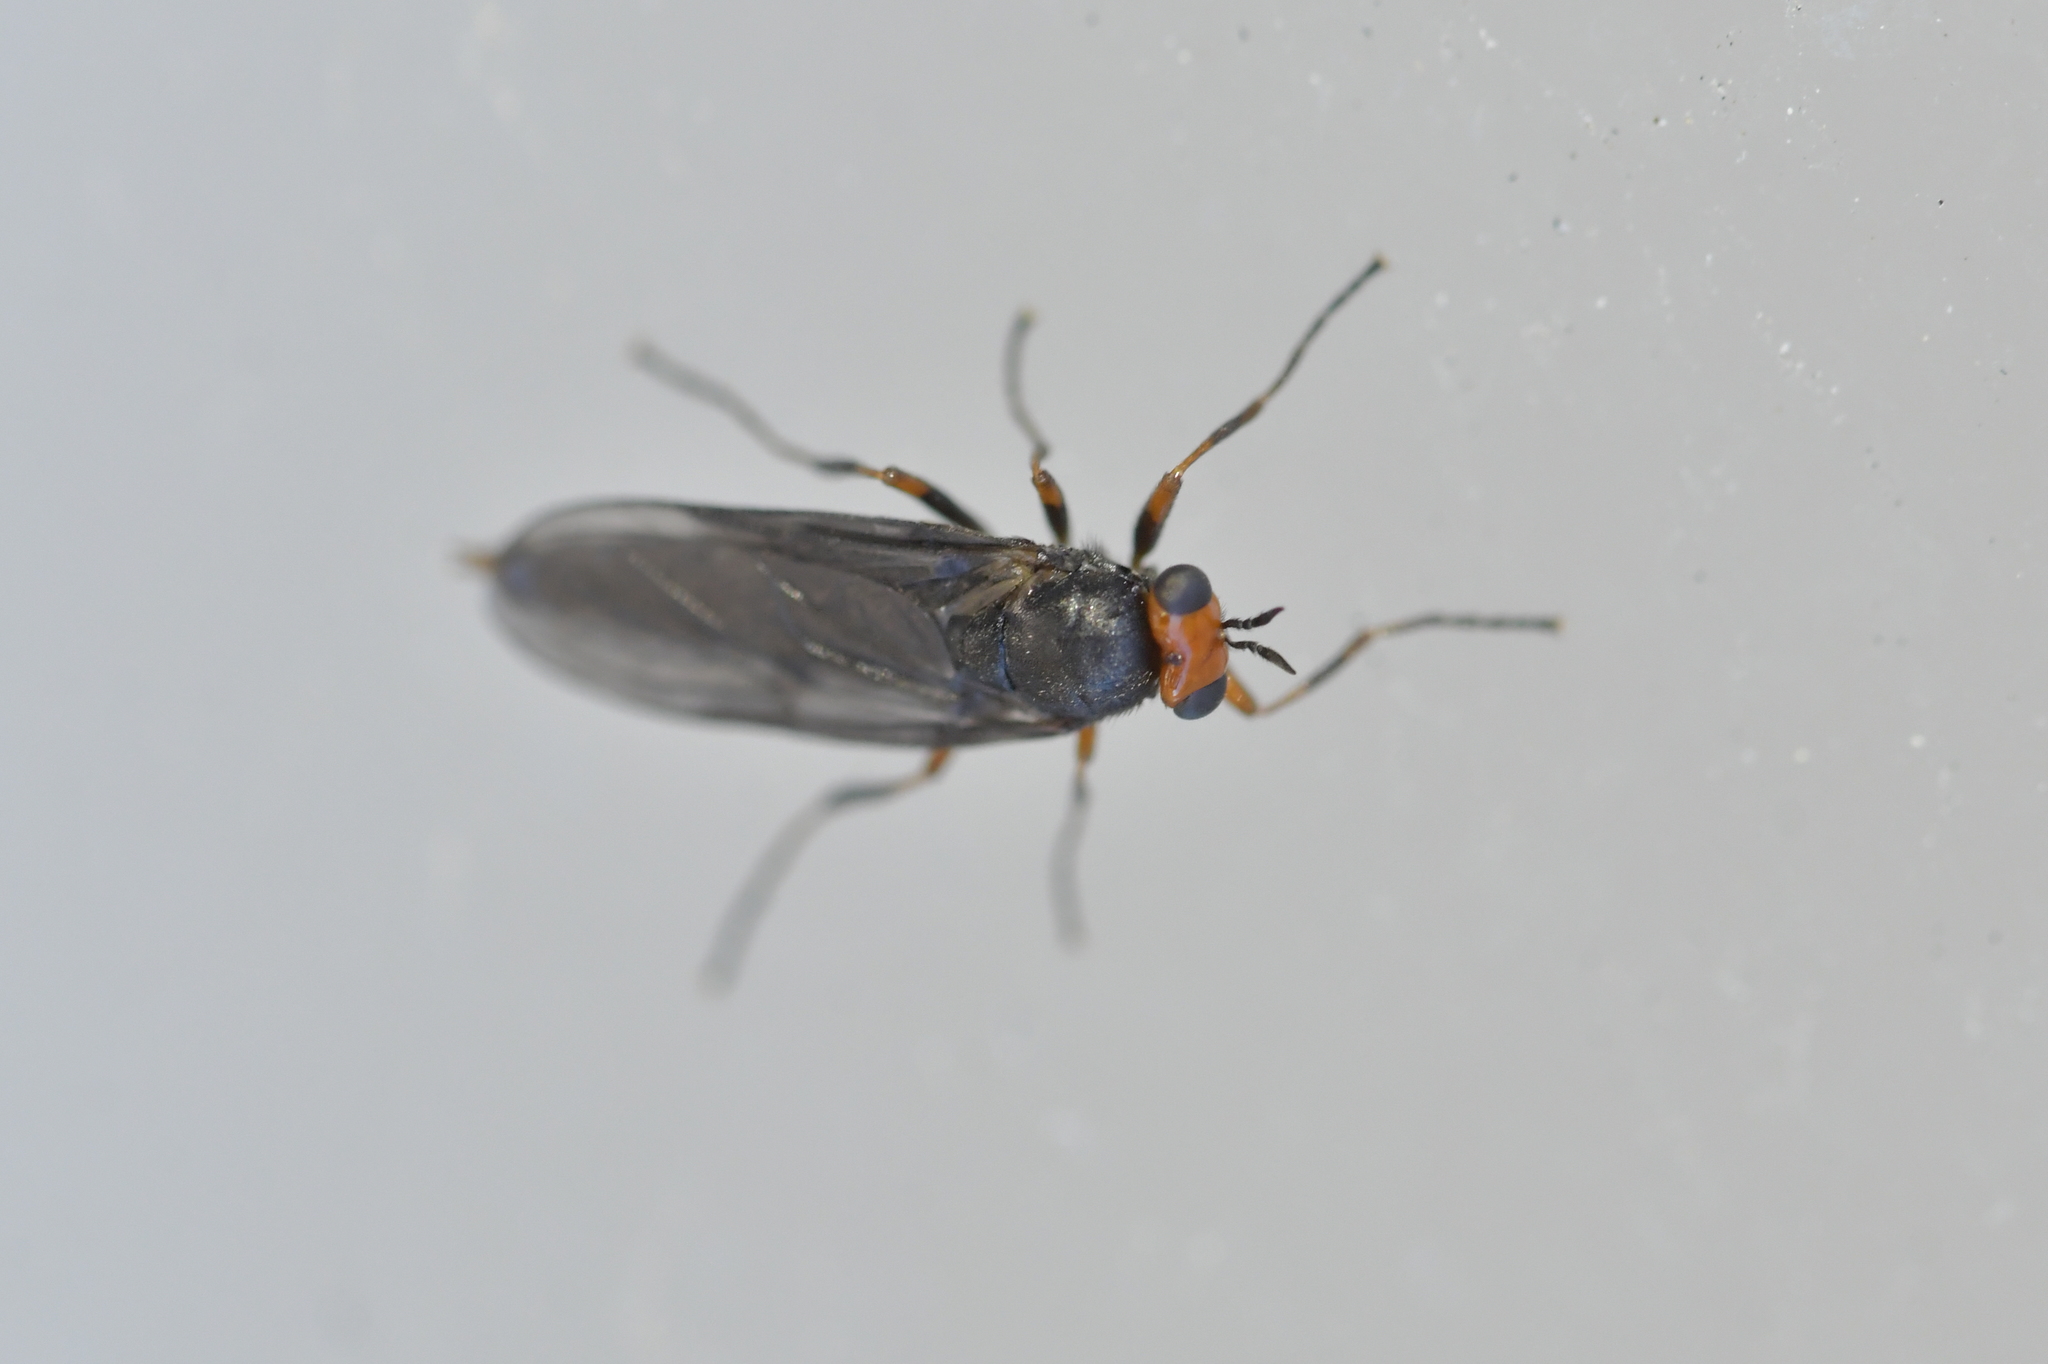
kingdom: Animalia
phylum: Arthropoda
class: Insecta
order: Diptera
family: Stratiomyidae
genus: Inopus
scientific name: Inopus rubriceps
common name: Soldier fly
